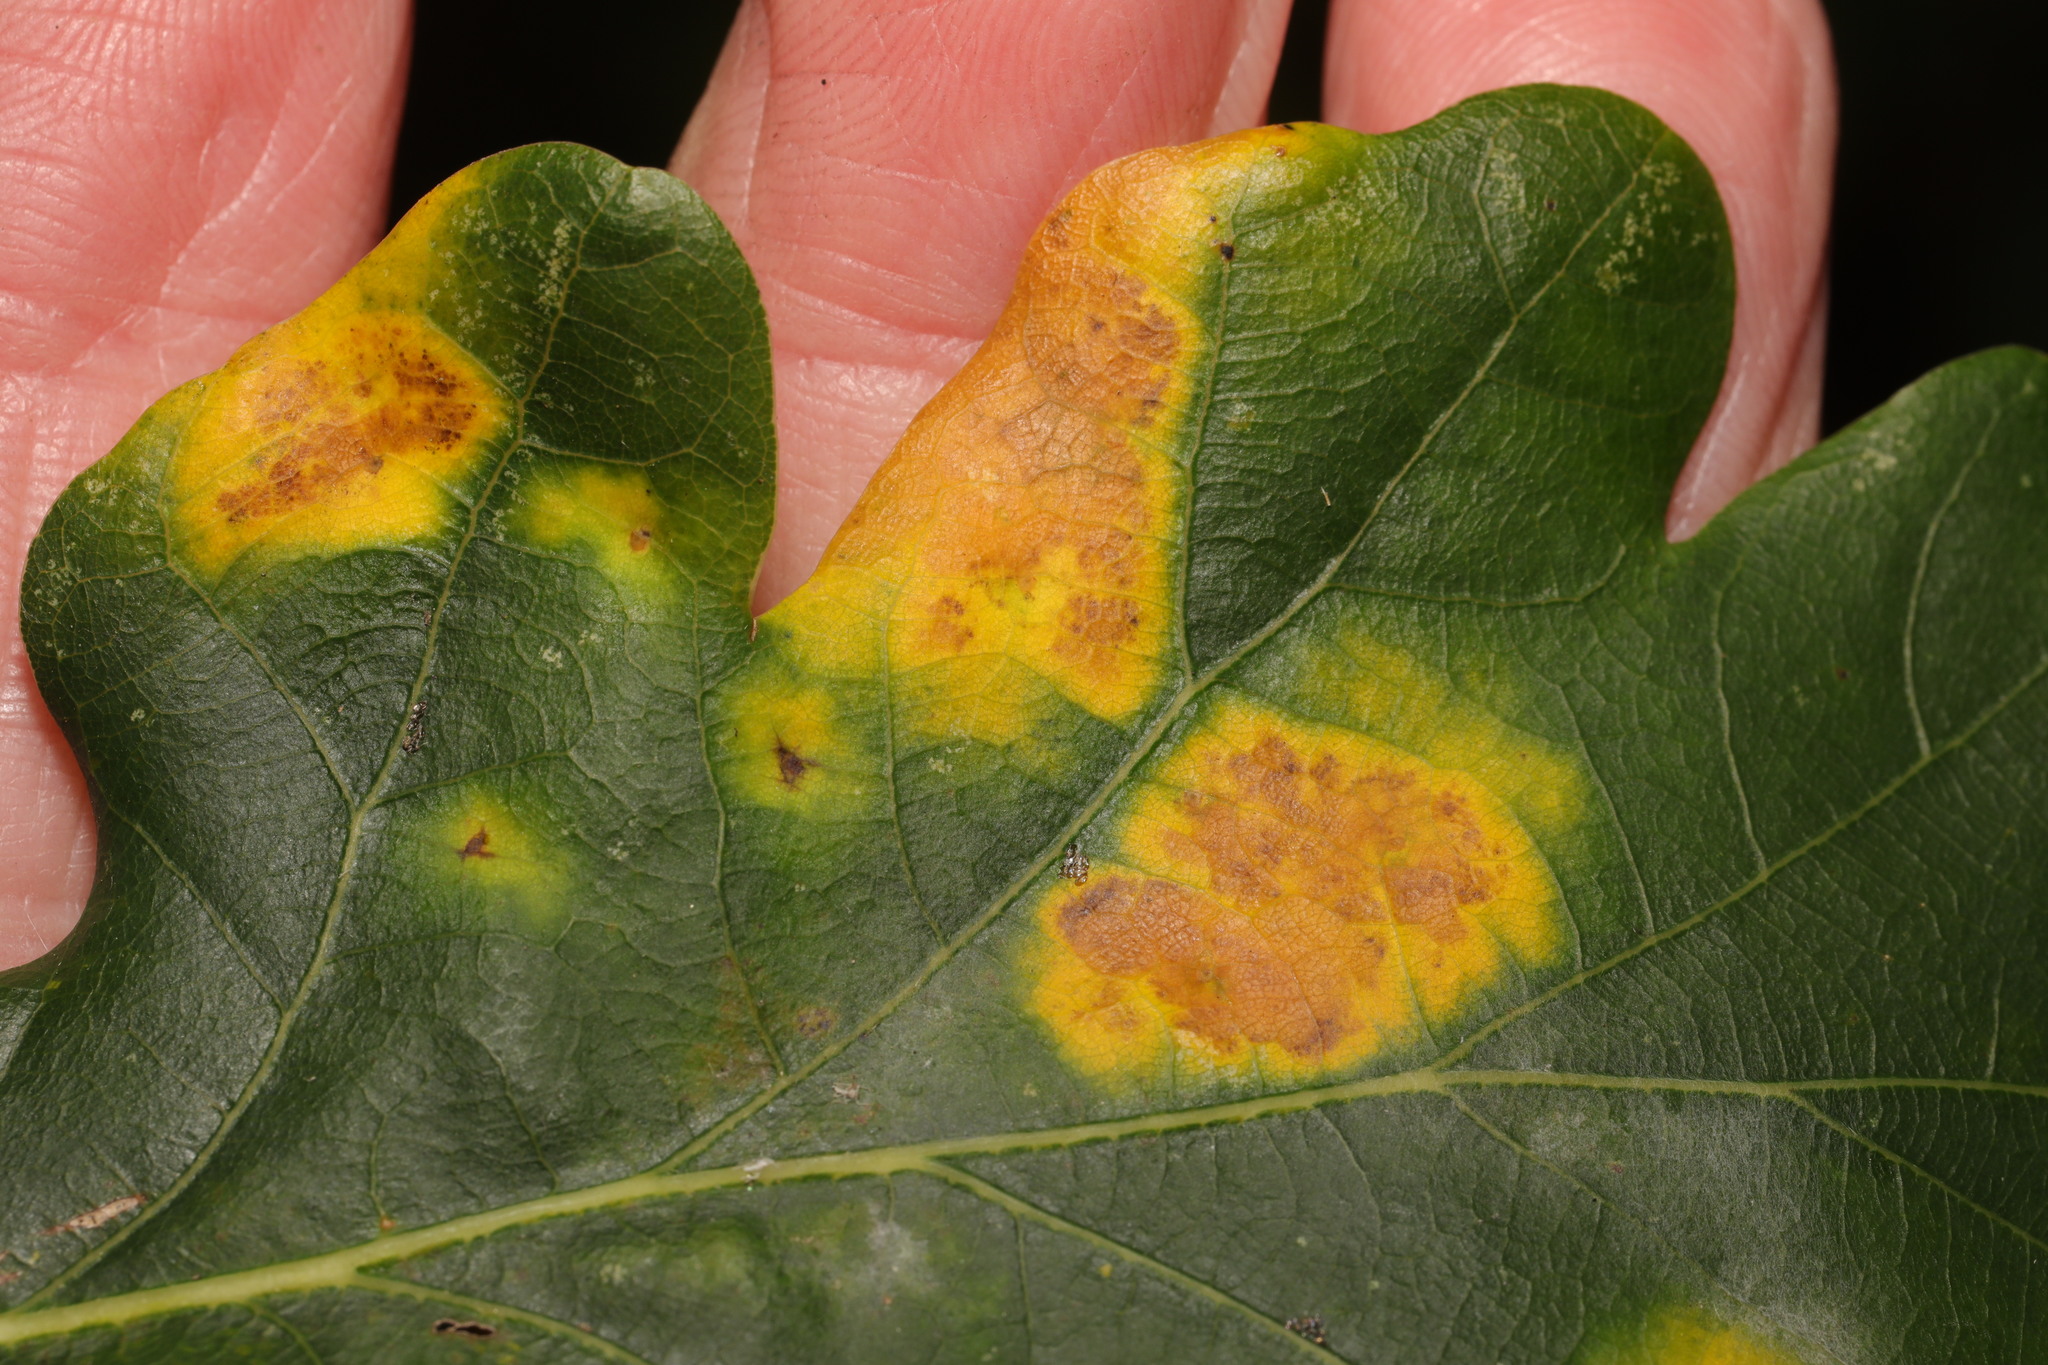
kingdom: Animalia
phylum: Arthropoda
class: Insecta
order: Hymenoptera
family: Cynipidae
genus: Neuroterus
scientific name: Neuroterus quercusbaccarum
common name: Common spangle gall
